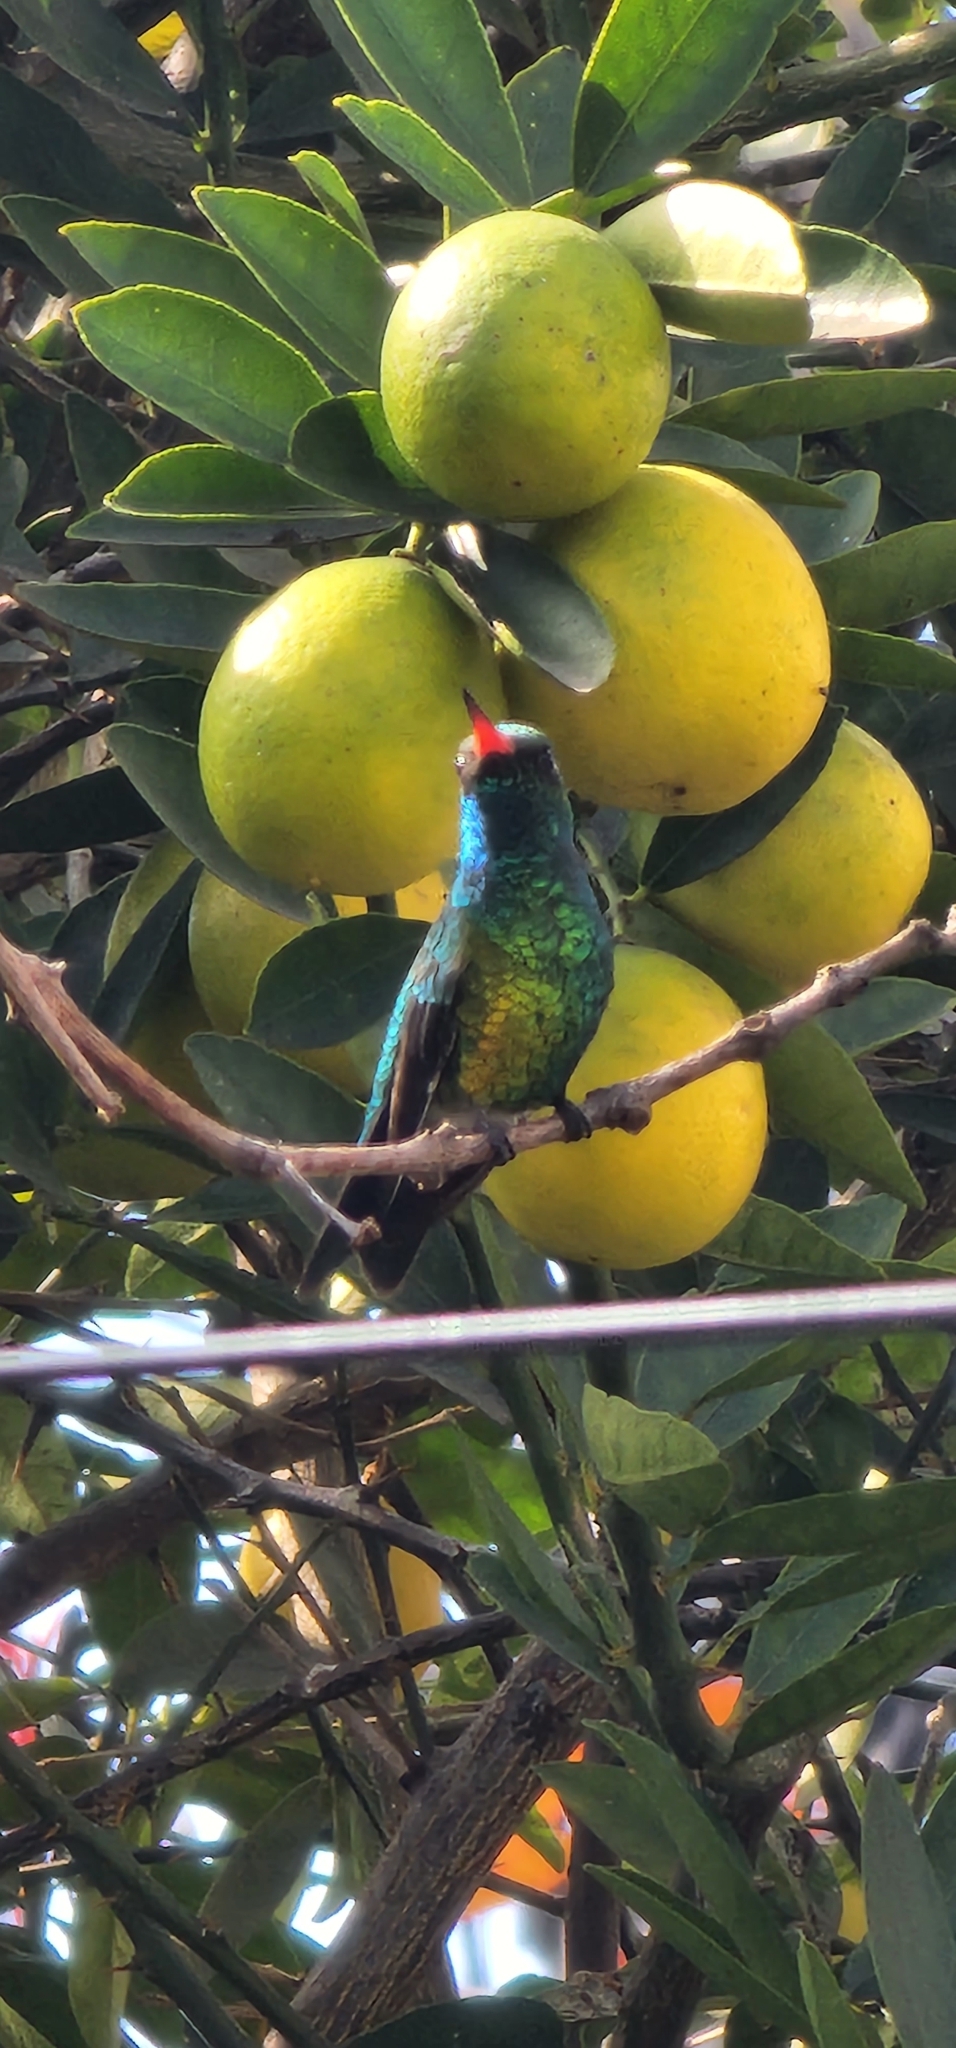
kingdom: Animalia
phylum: Chordata
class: Aves
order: Apodiformes
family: Trochilidae
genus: Chlorostilbon
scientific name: Chlorostilbon lucidus
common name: Glittering-bellied emerald
